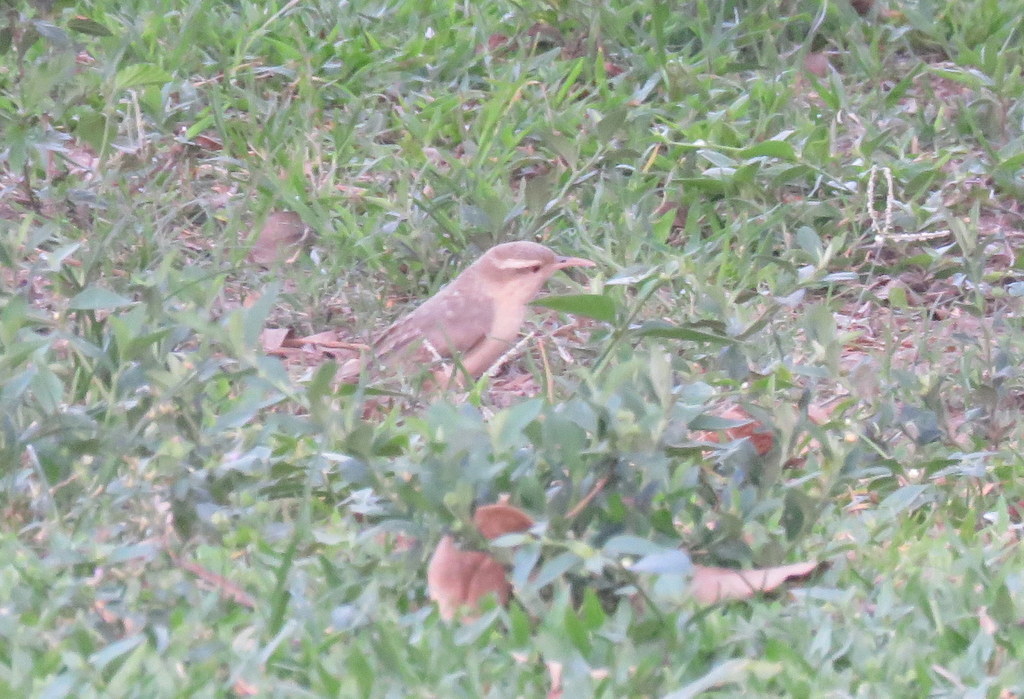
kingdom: Animalia
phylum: Chordata
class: Aves
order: Passeriformes
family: Troglodytidae
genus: Campylorhynchus
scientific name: Campylorhynchus turdinus
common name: Thrush-like wren
